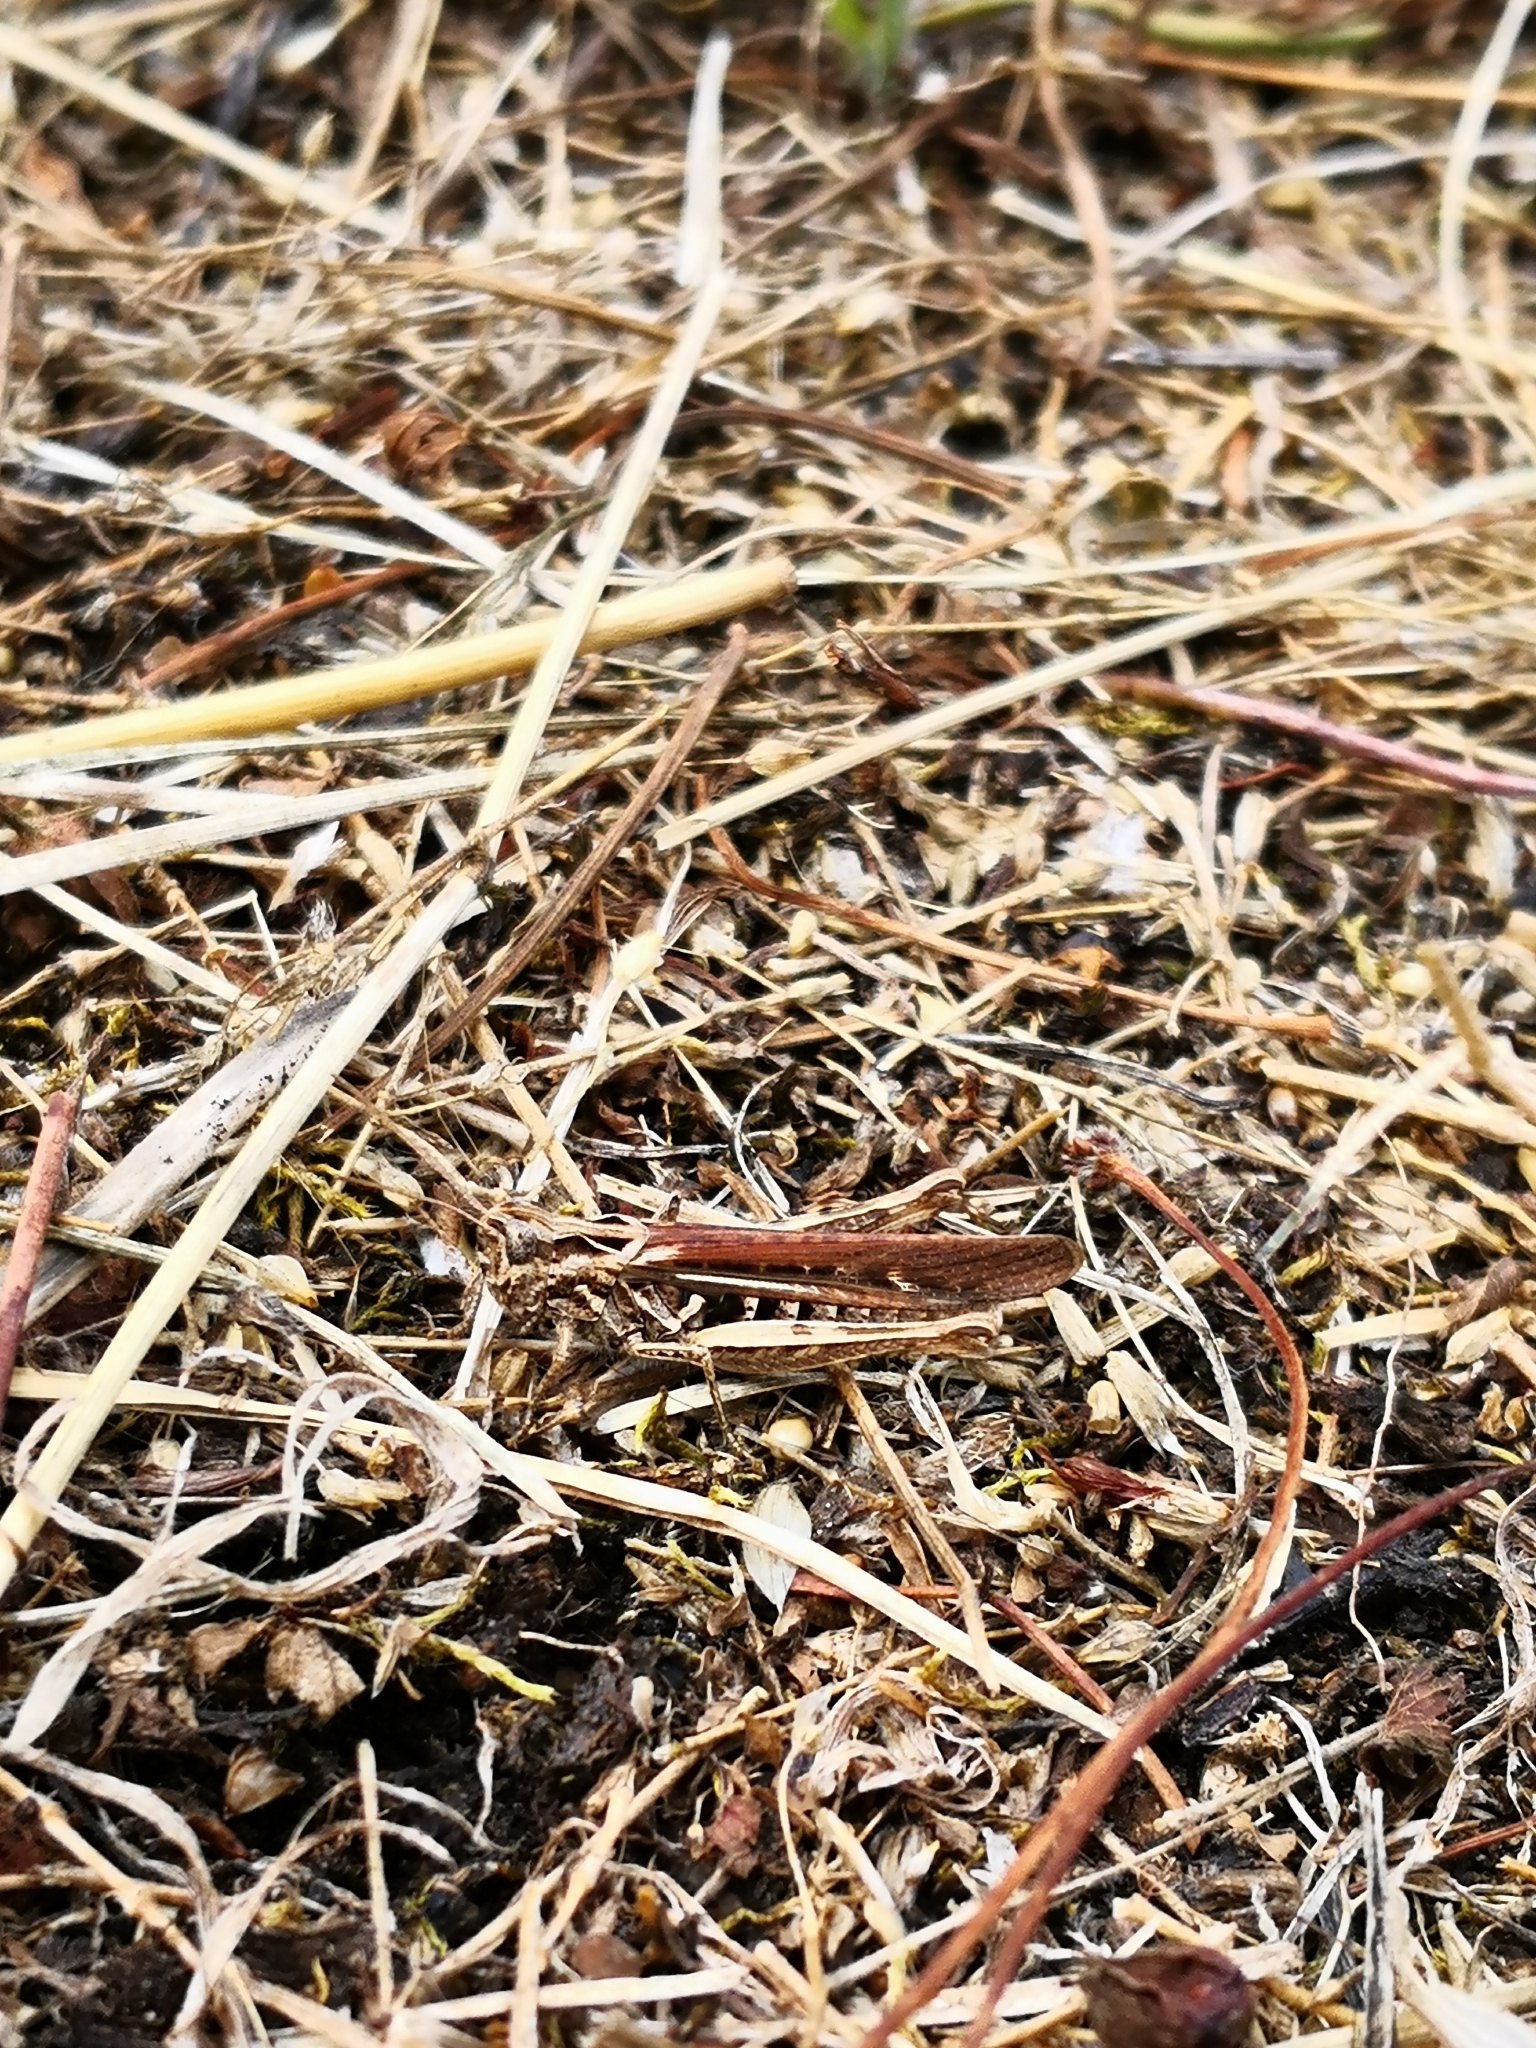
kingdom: Animalia
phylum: Arthropoda
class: Insecta
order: Orthoptera
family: Acrididae
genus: Chorthippus
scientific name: Chorthippus biguttulus
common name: Bow-winged grasshopper
